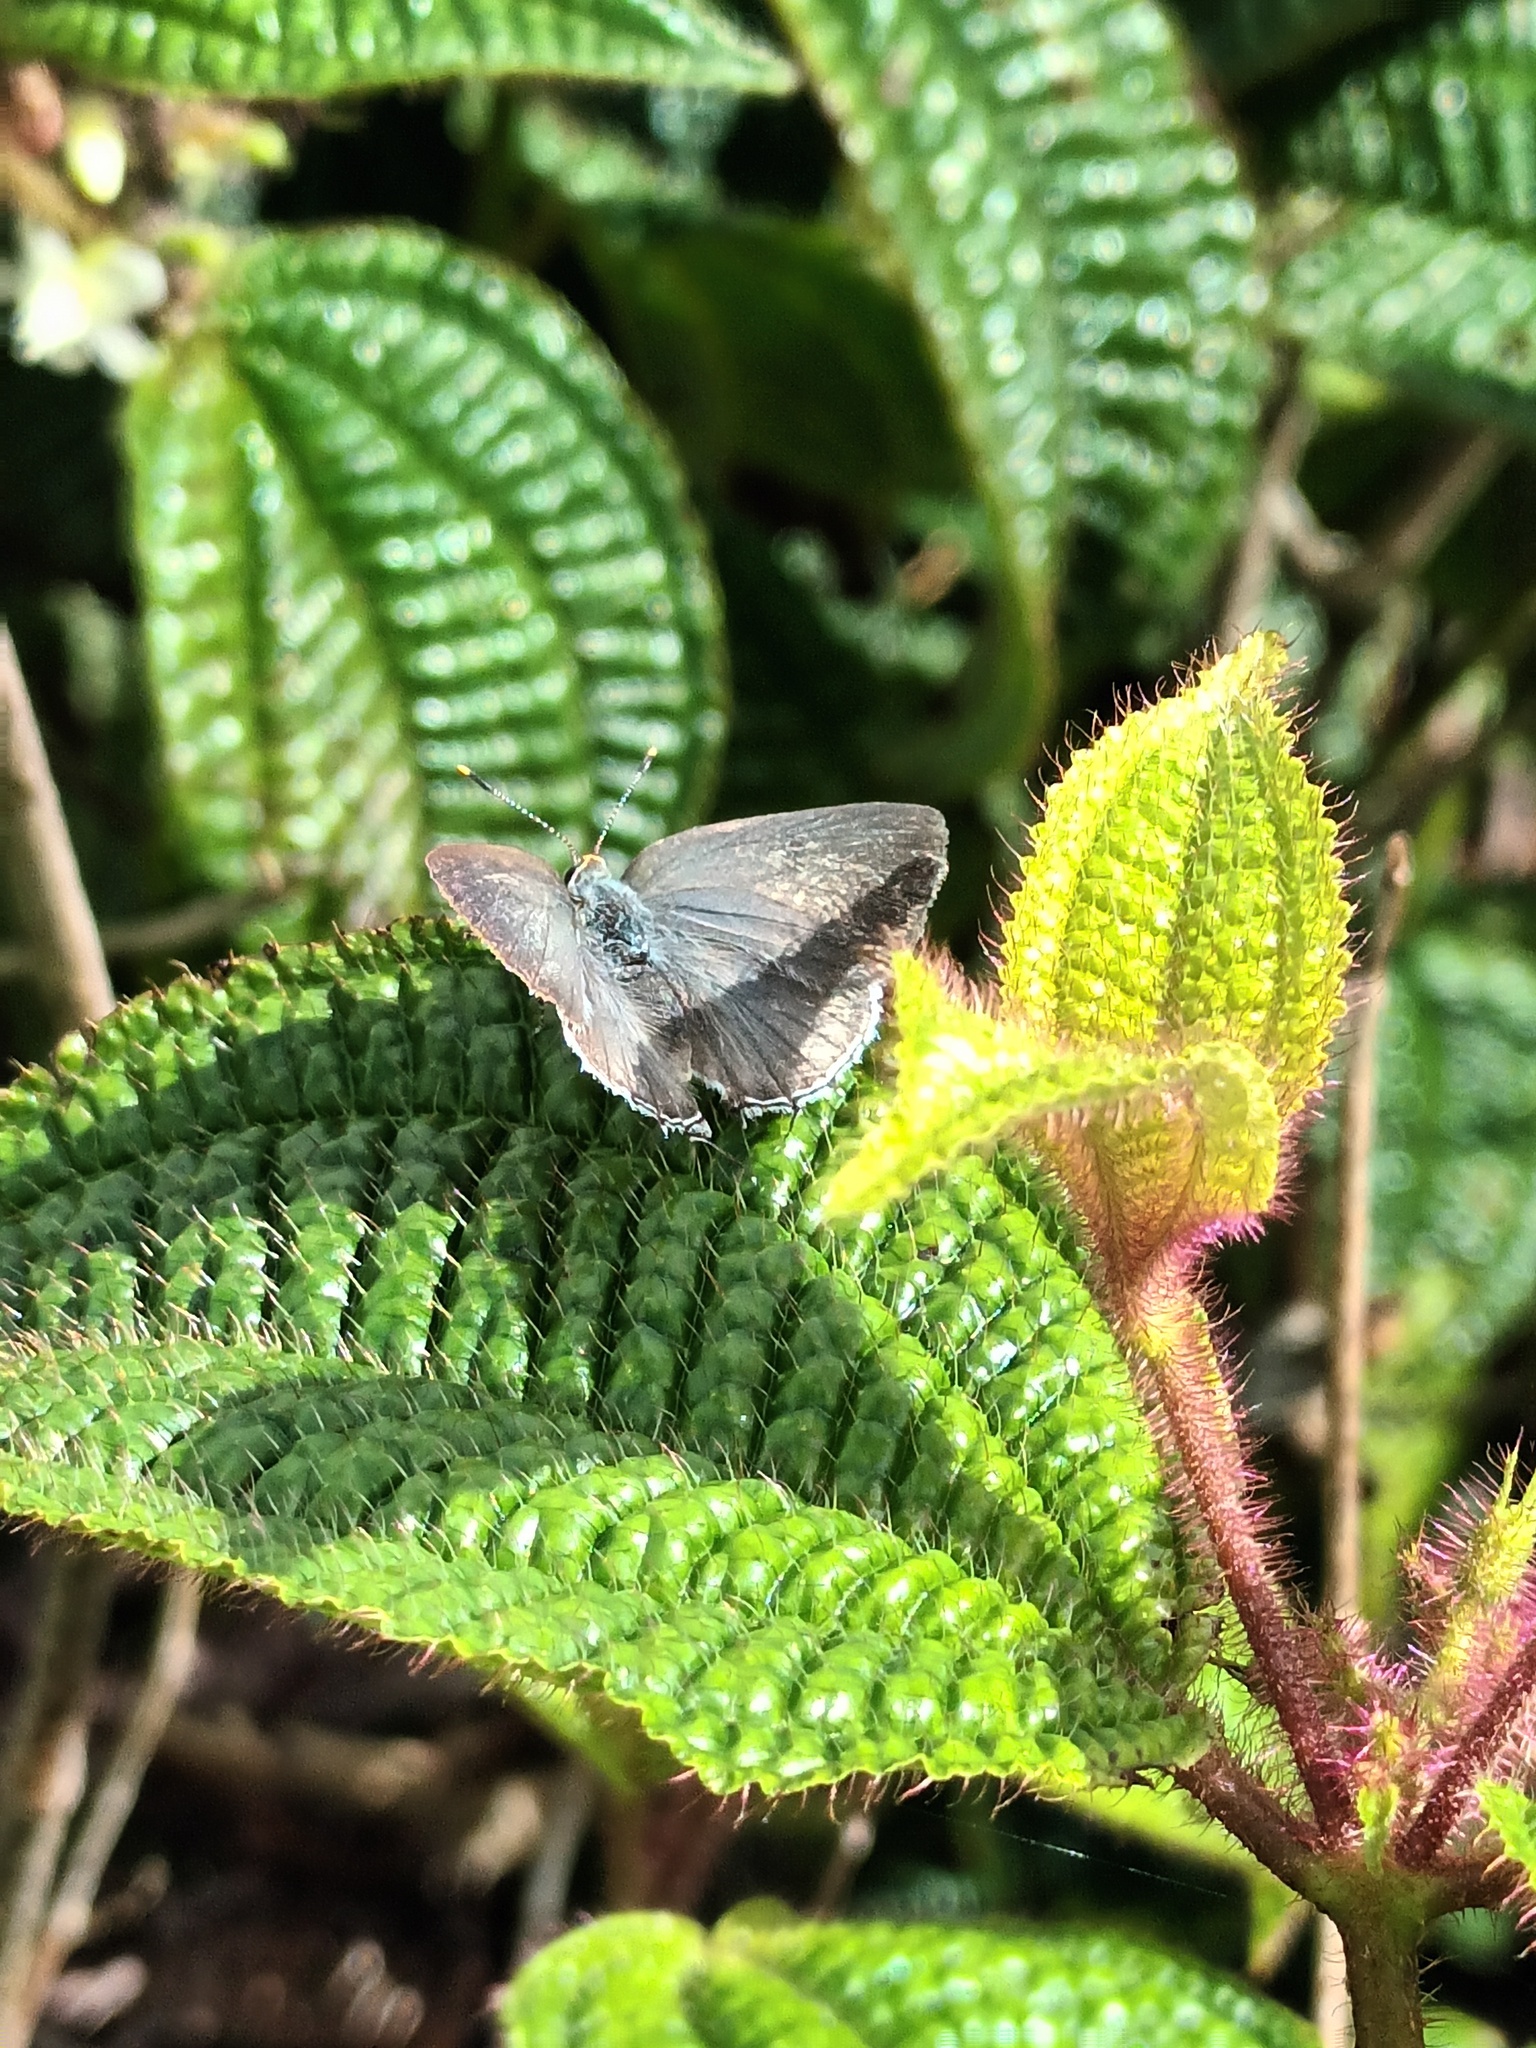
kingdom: Animalia
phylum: Arthropoda
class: Insecta
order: Lepidoptera
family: Lycaenidae
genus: Tmolus
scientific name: Tmolus echion
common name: Red-spotted hairstreak
